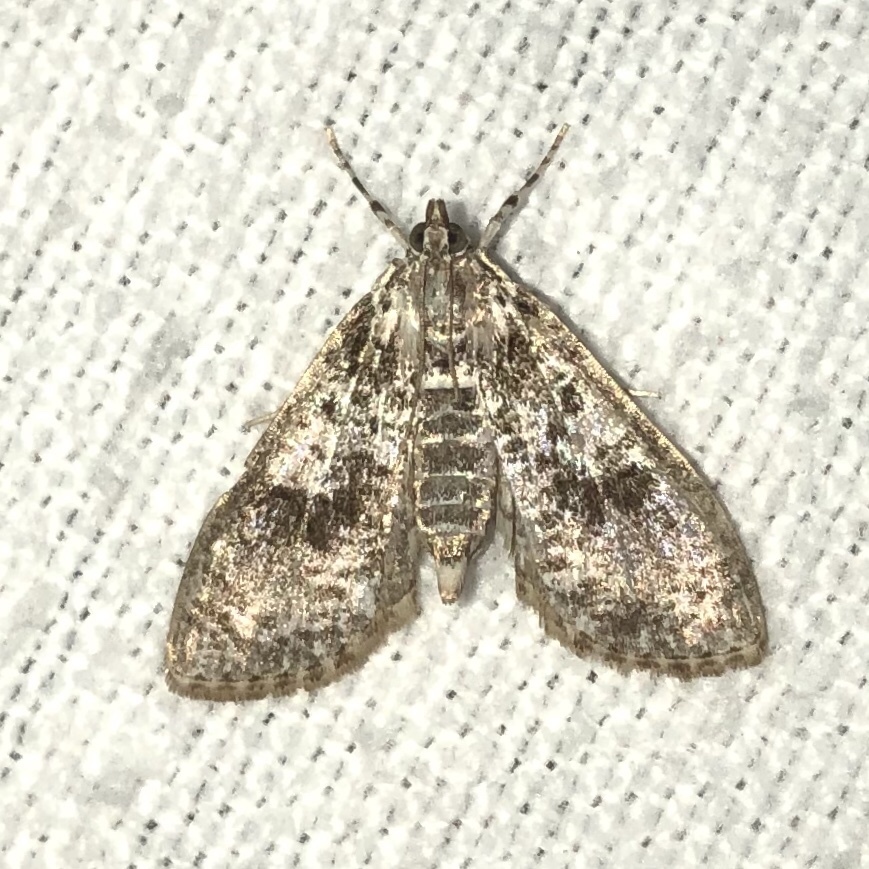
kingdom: Animalia
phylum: Arthropoda
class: Insecta
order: Lepidoptera
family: Crambidae
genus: Palpita
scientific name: Palpita magniferalis
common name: Splendid palpita moth
